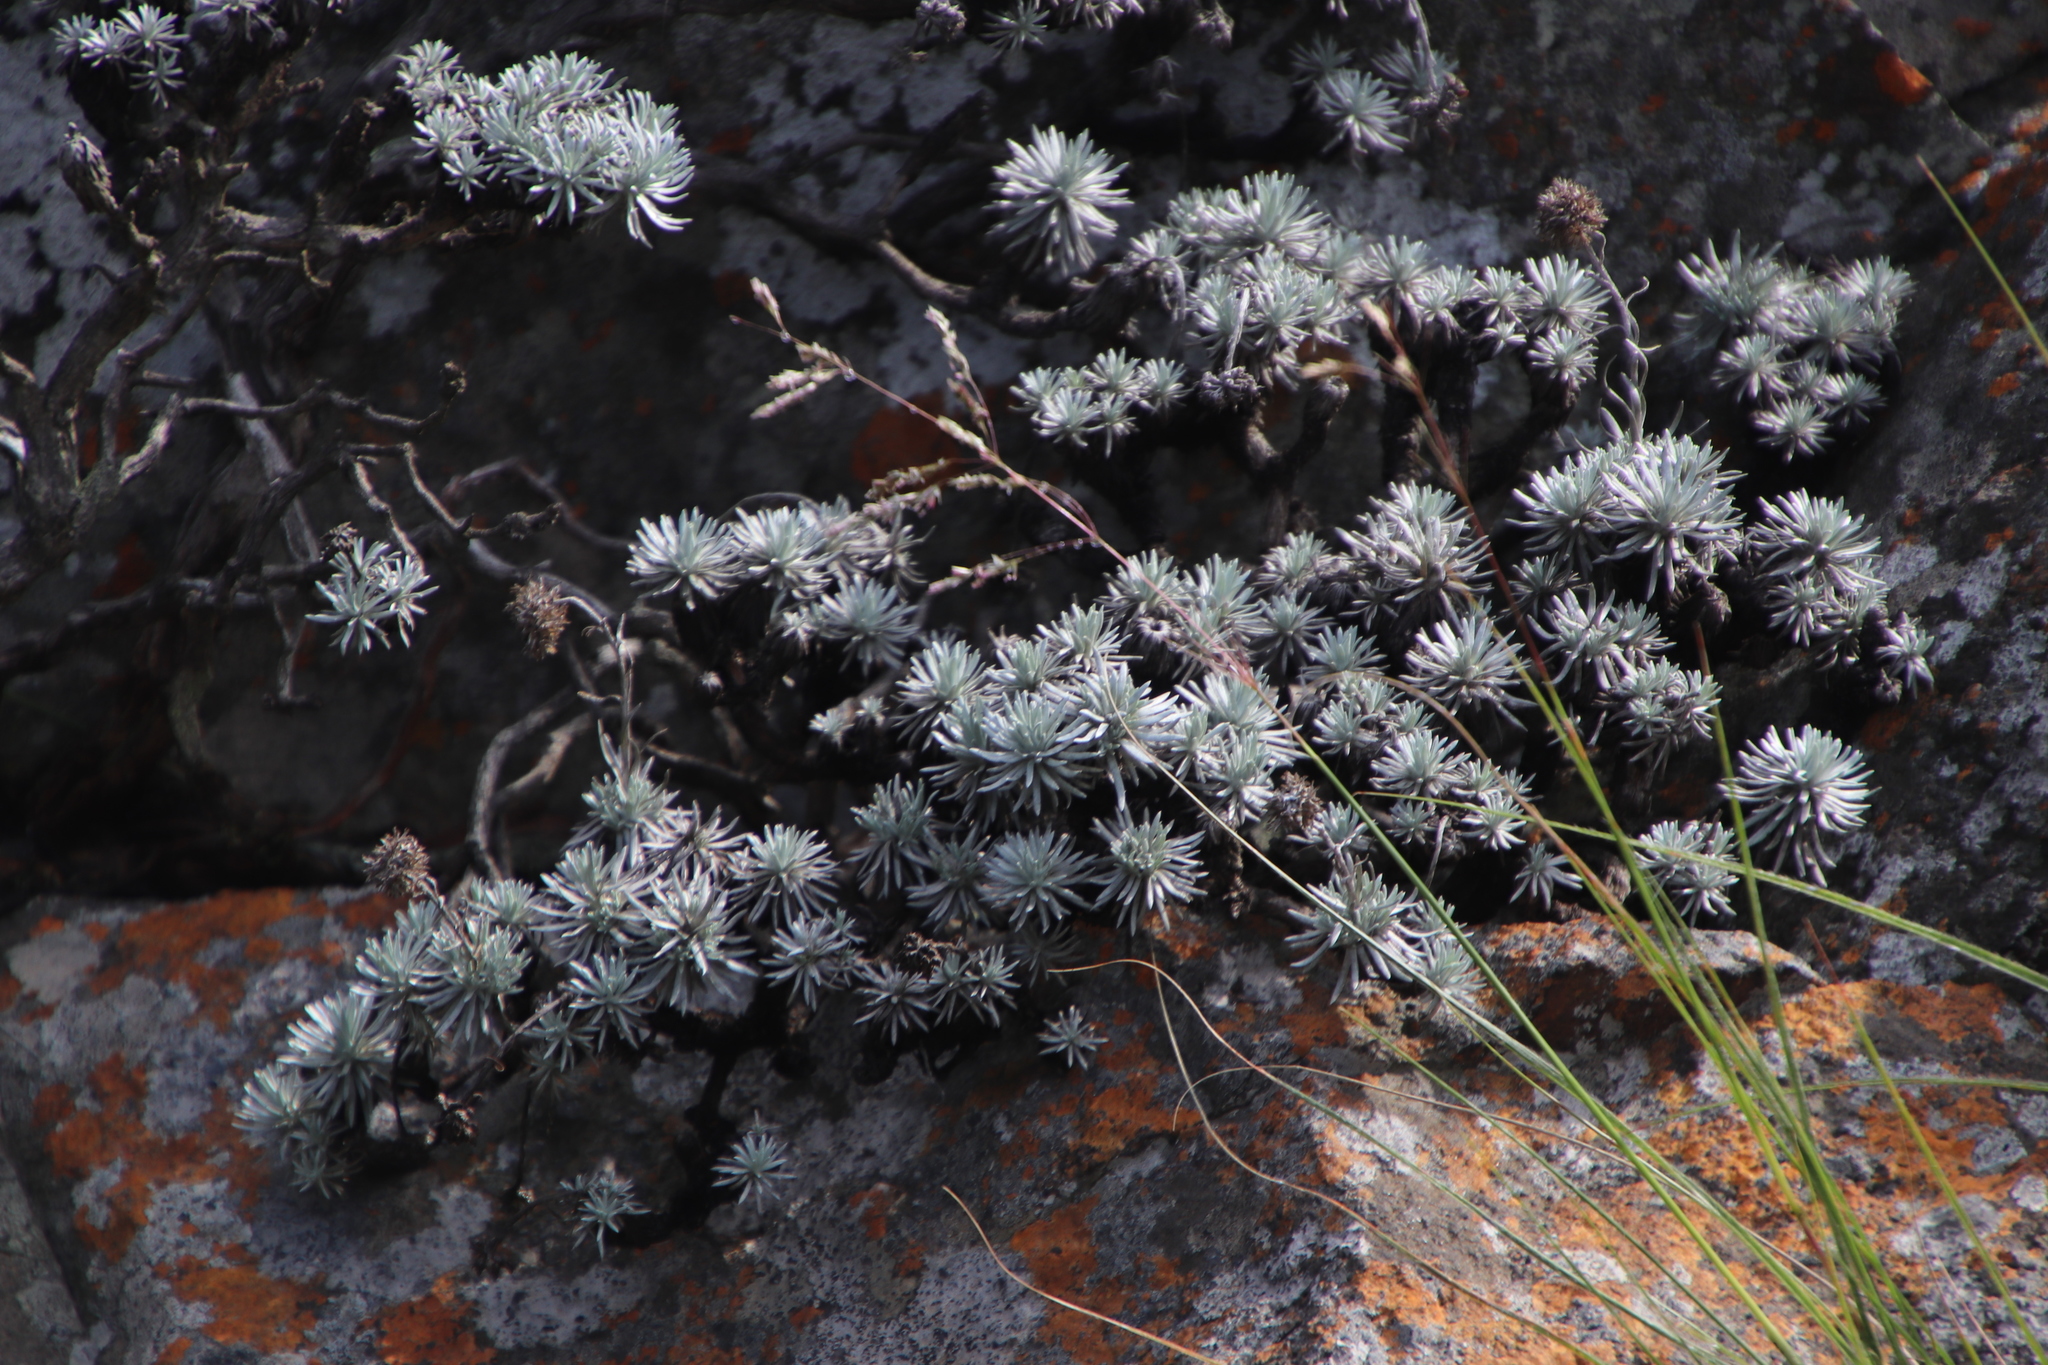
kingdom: Plantae
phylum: Tracheophyta
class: Magnoliopsida
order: Asterales
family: Asteraceae
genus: Helichrysum
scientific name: Helichrysum galpinii
